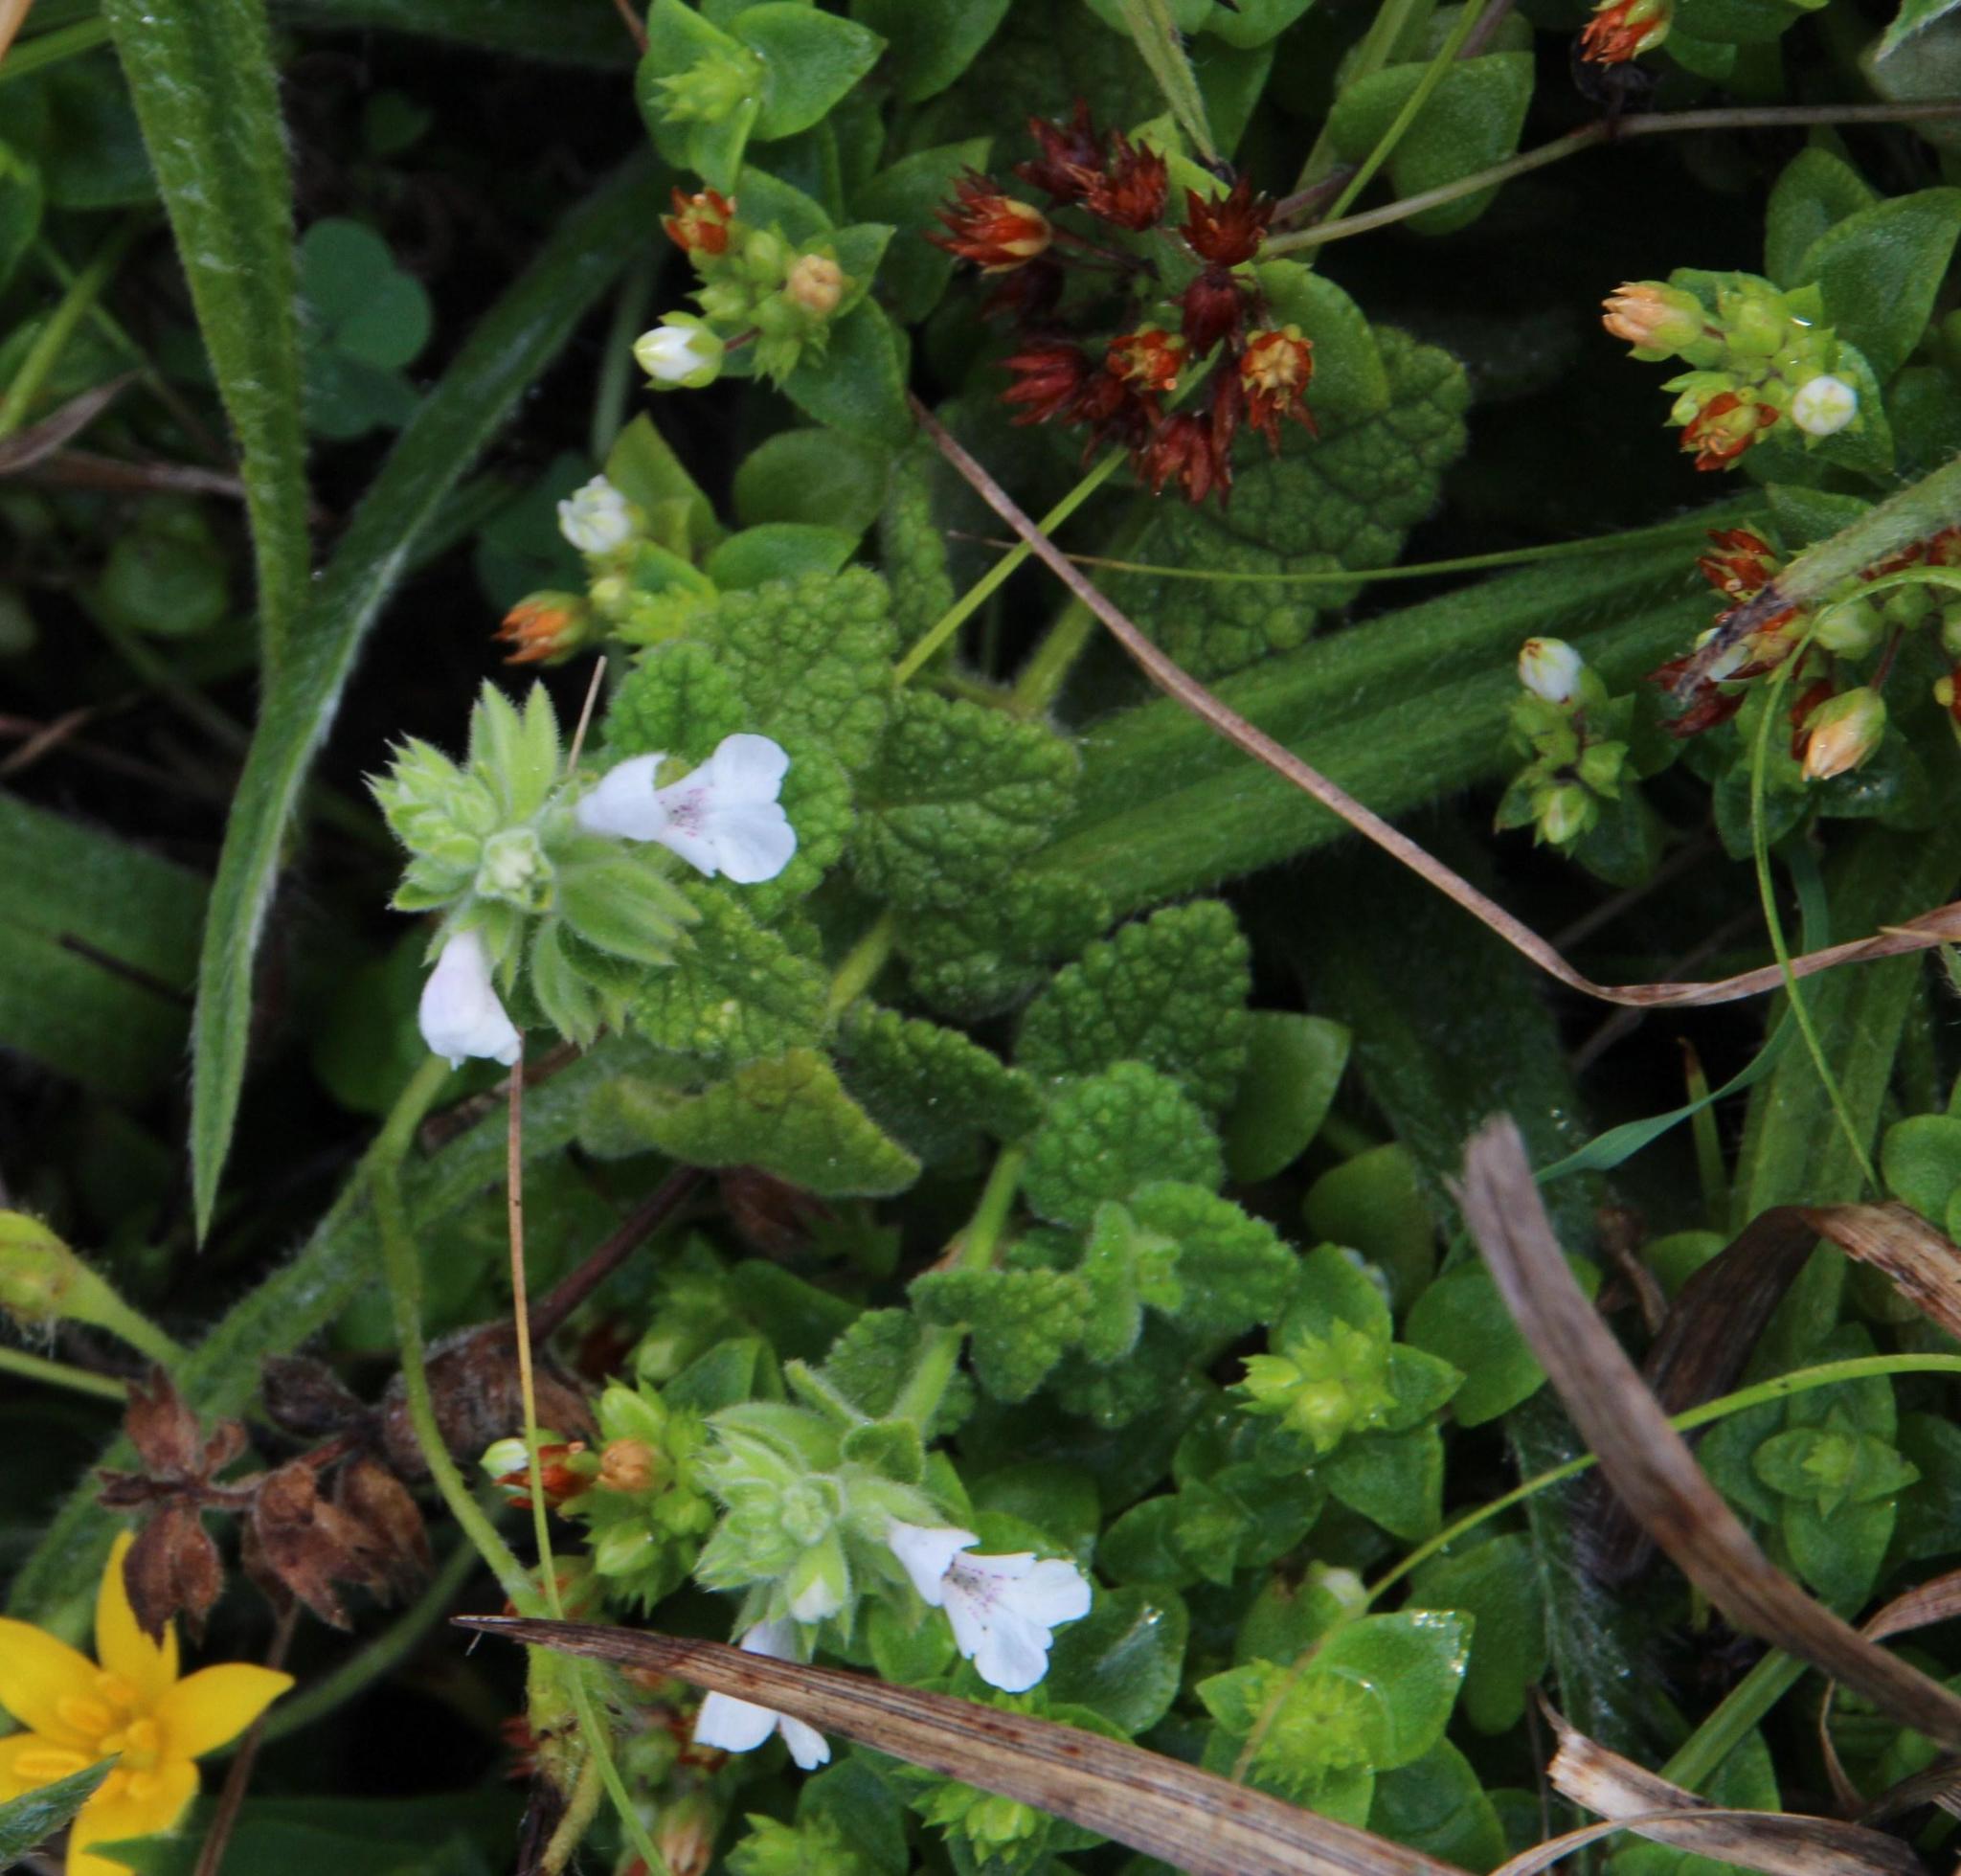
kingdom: Plantae
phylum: Tracheophyta
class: Magnoliopsida
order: Lamiales
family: Lamiaceae
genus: Stachys
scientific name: Stachys aethiopica
